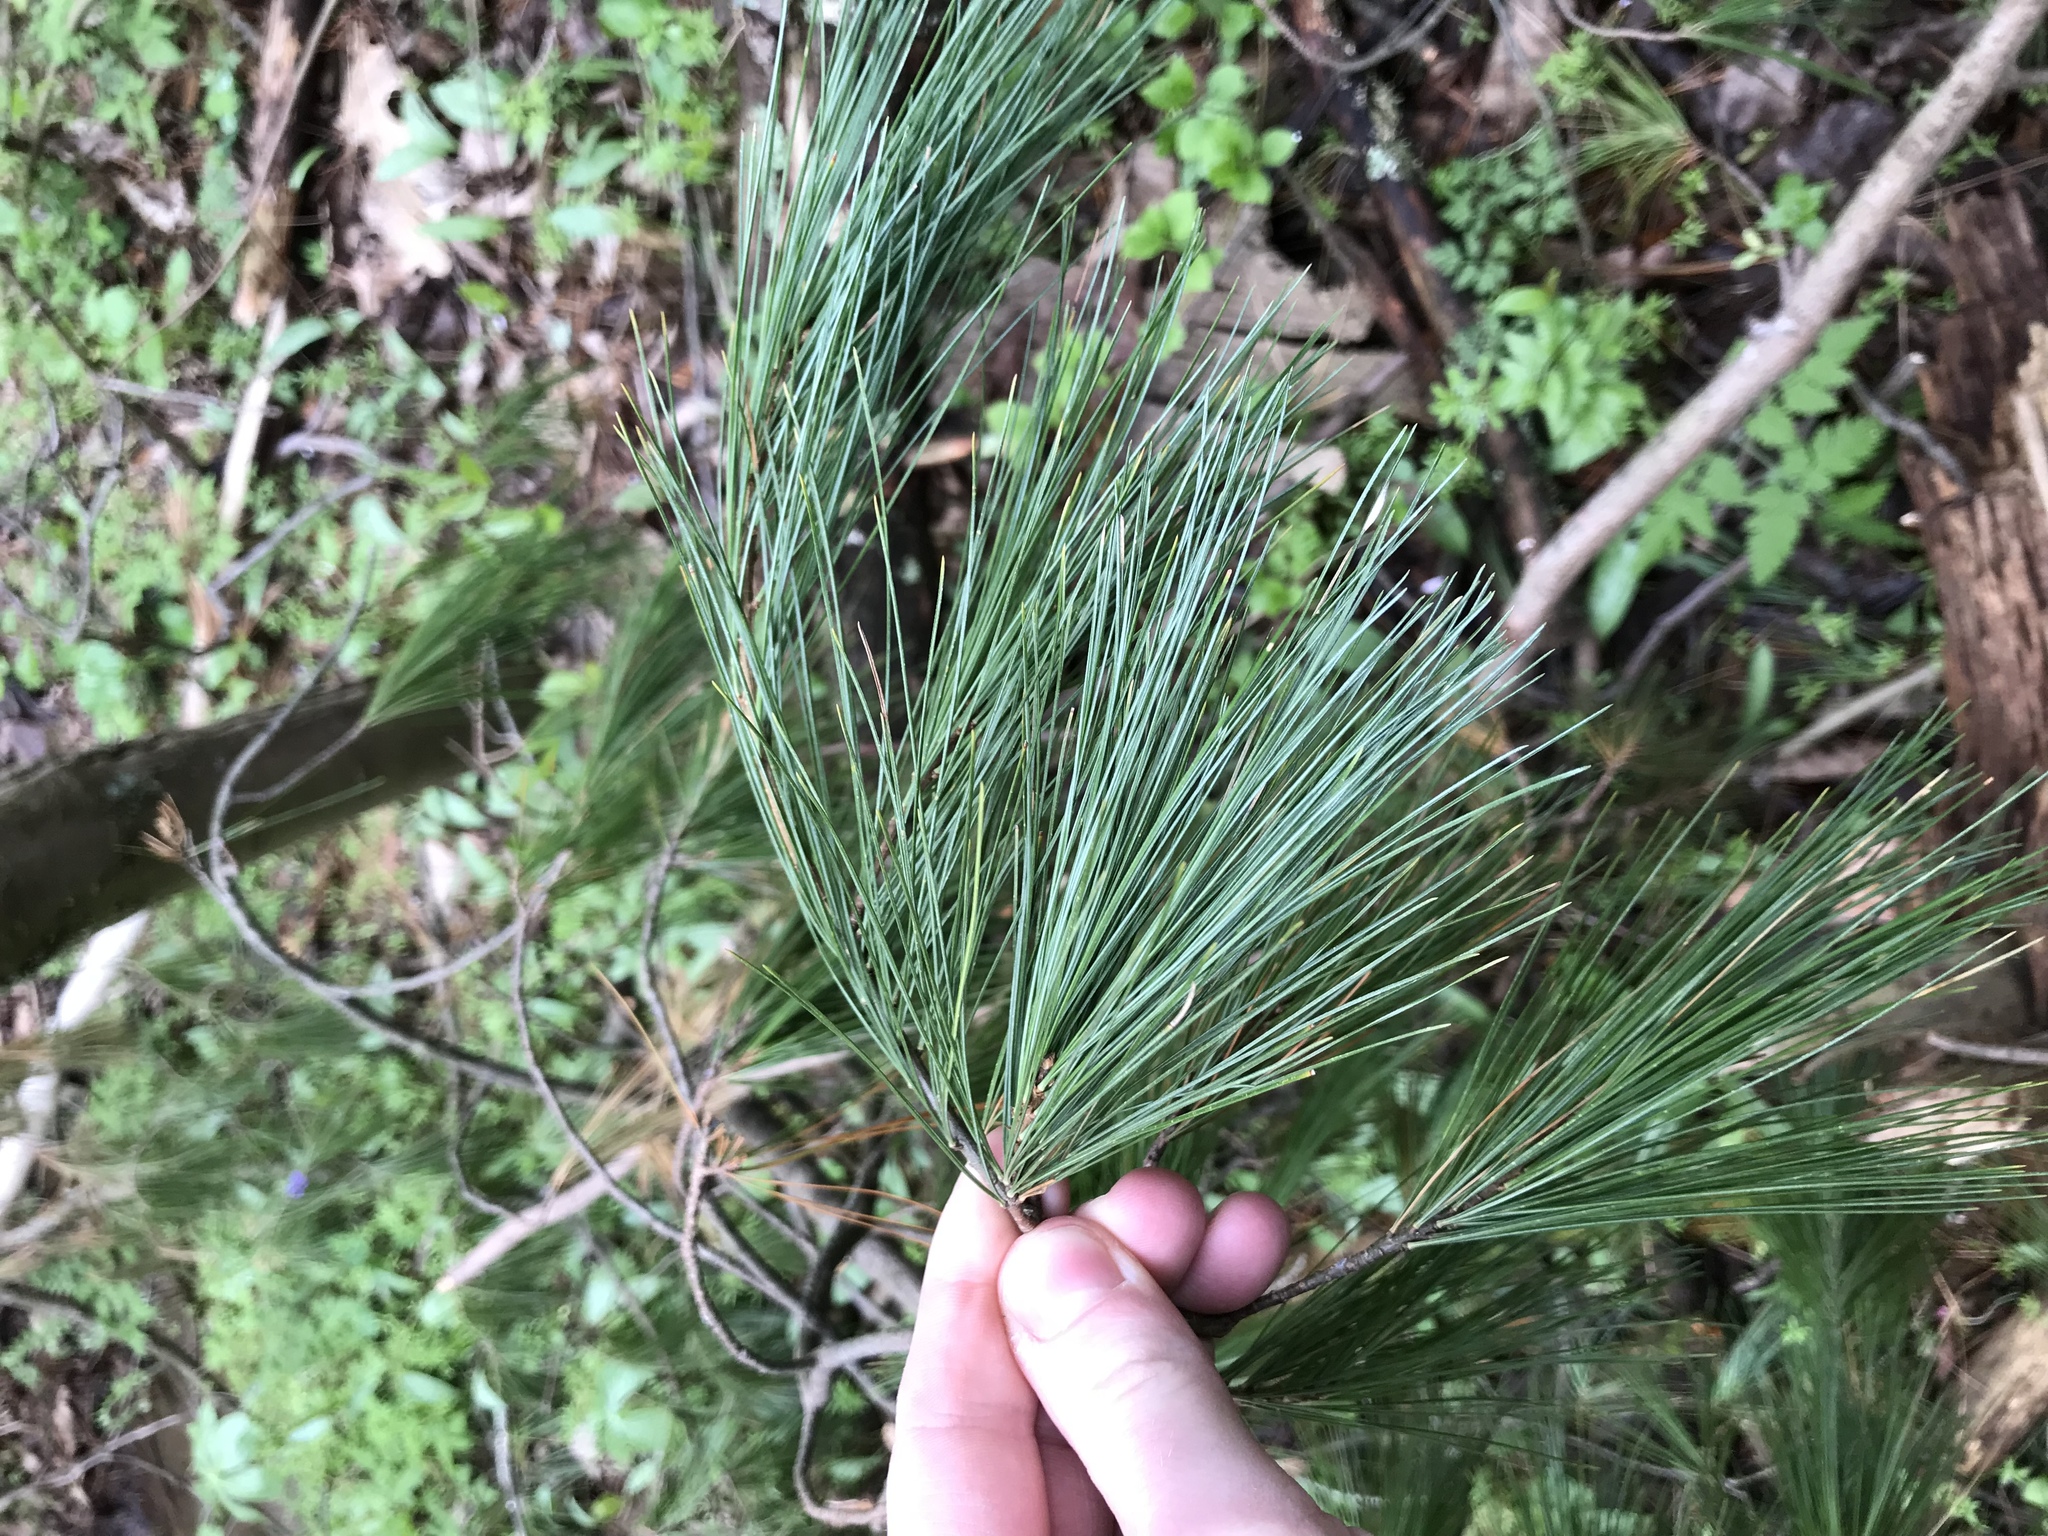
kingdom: Plantae
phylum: Tracheophyta
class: Pinopsida
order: Pinales
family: Pinaceae
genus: Pinus
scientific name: Pinus strobus
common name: Weymouth pine
